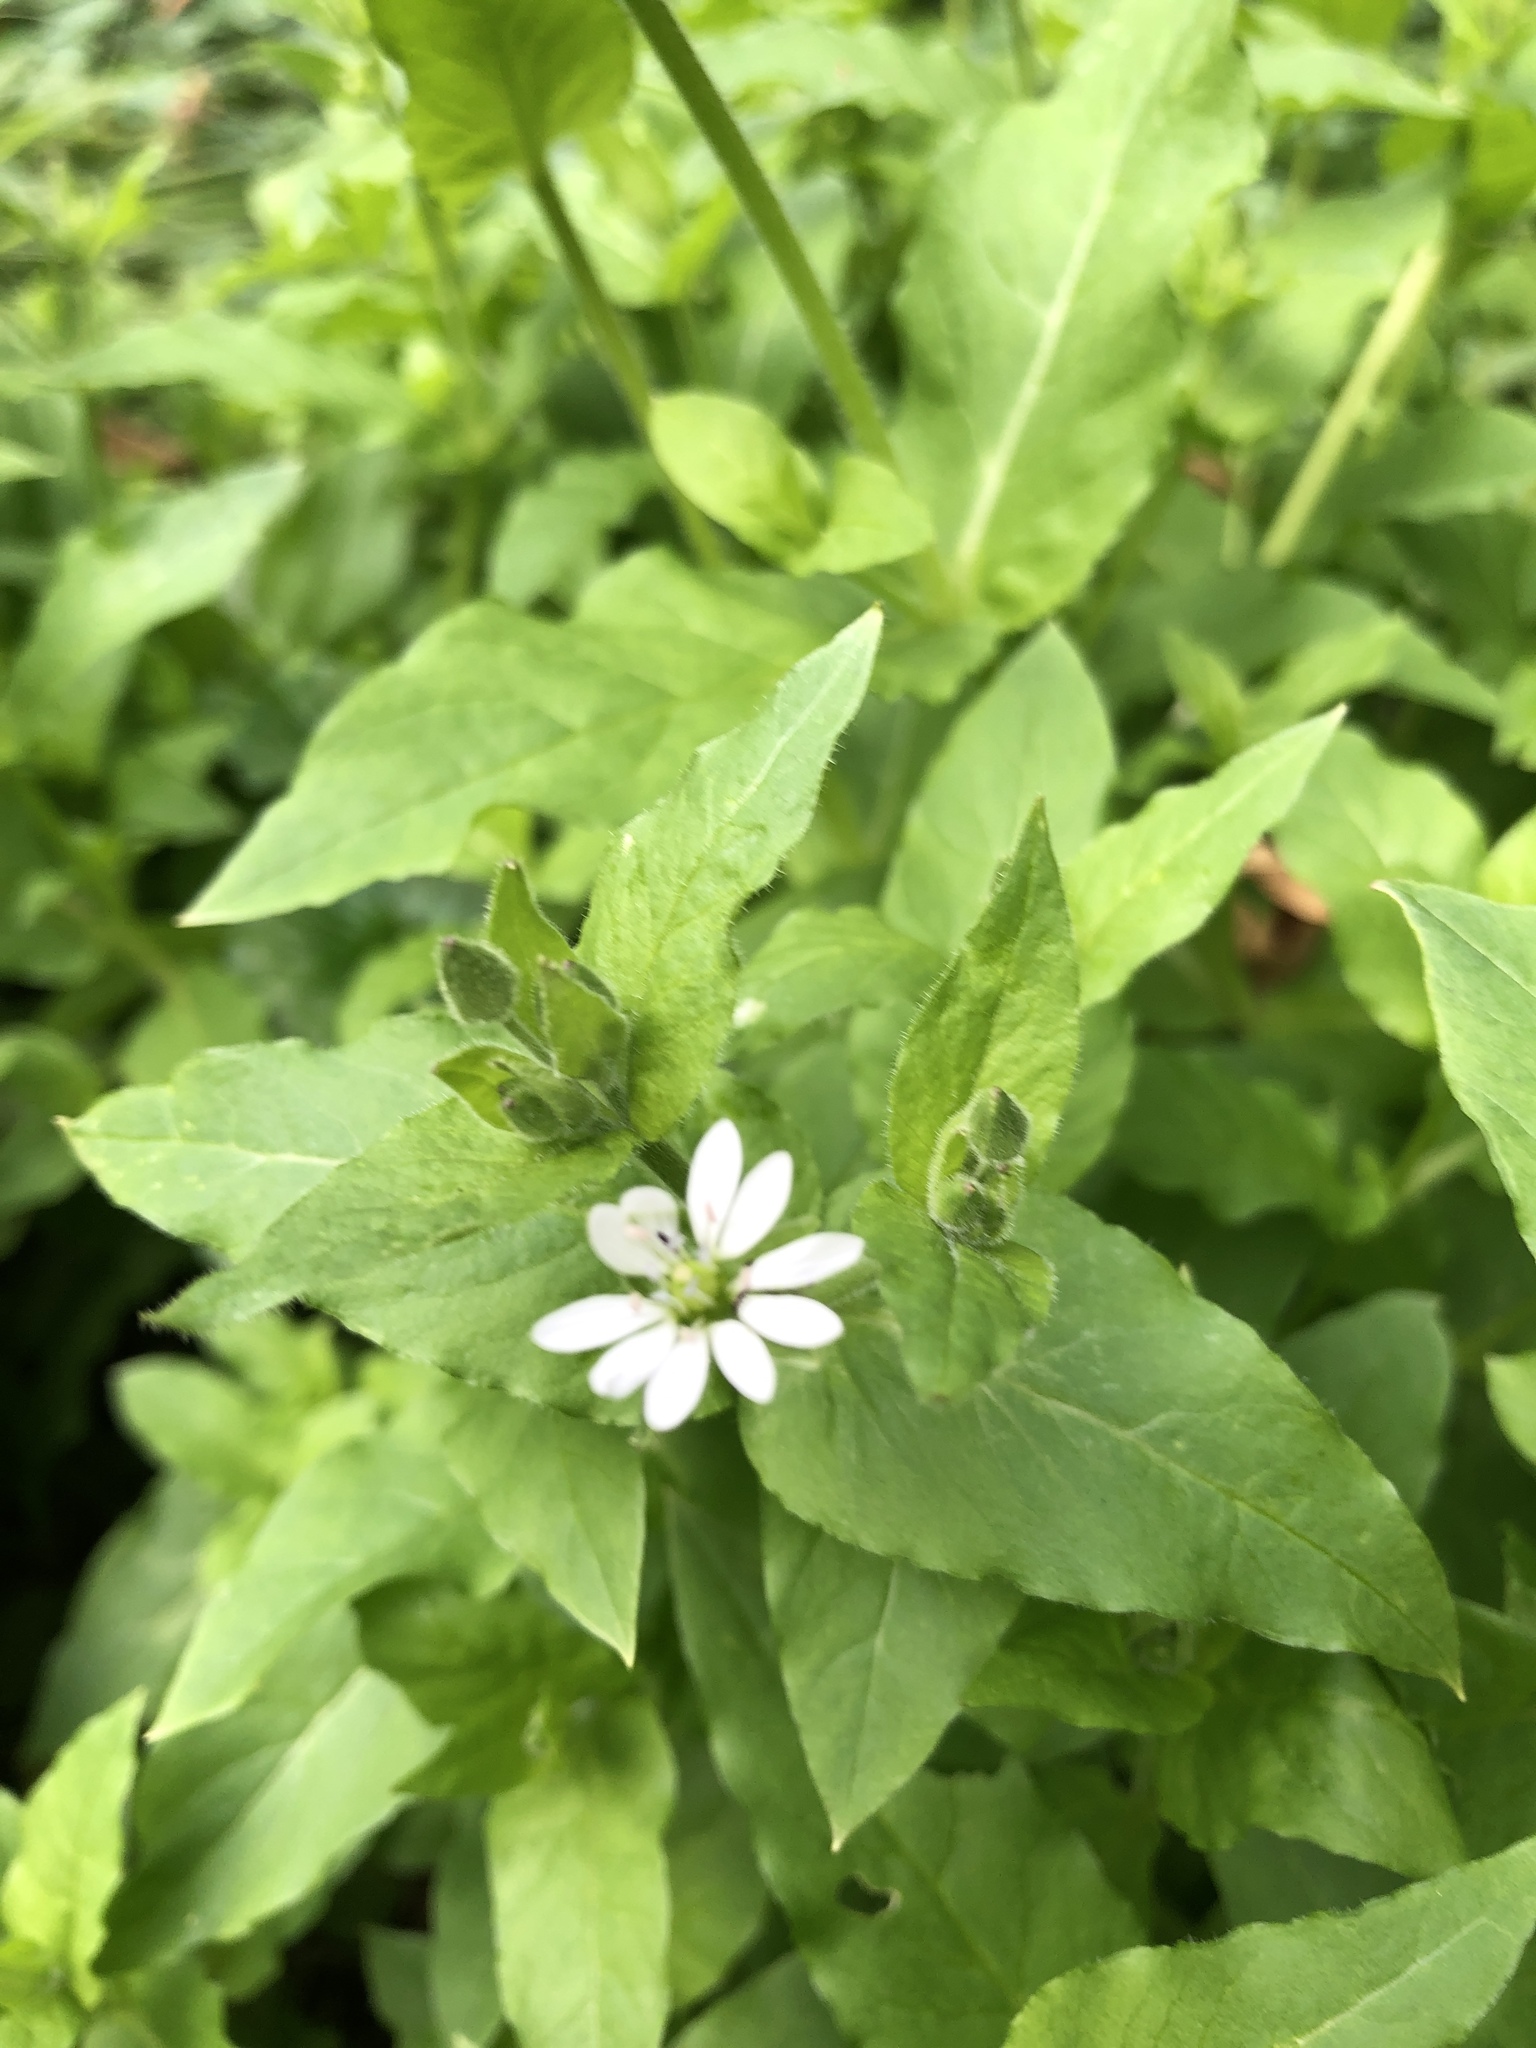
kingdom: Plantae
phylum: Tracheophyta
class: Magnoliopsida
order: Caryophyllales
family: Caryophyllaceae
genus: Stellaria
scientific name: Stellaria aquatica
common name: Water chickweed
